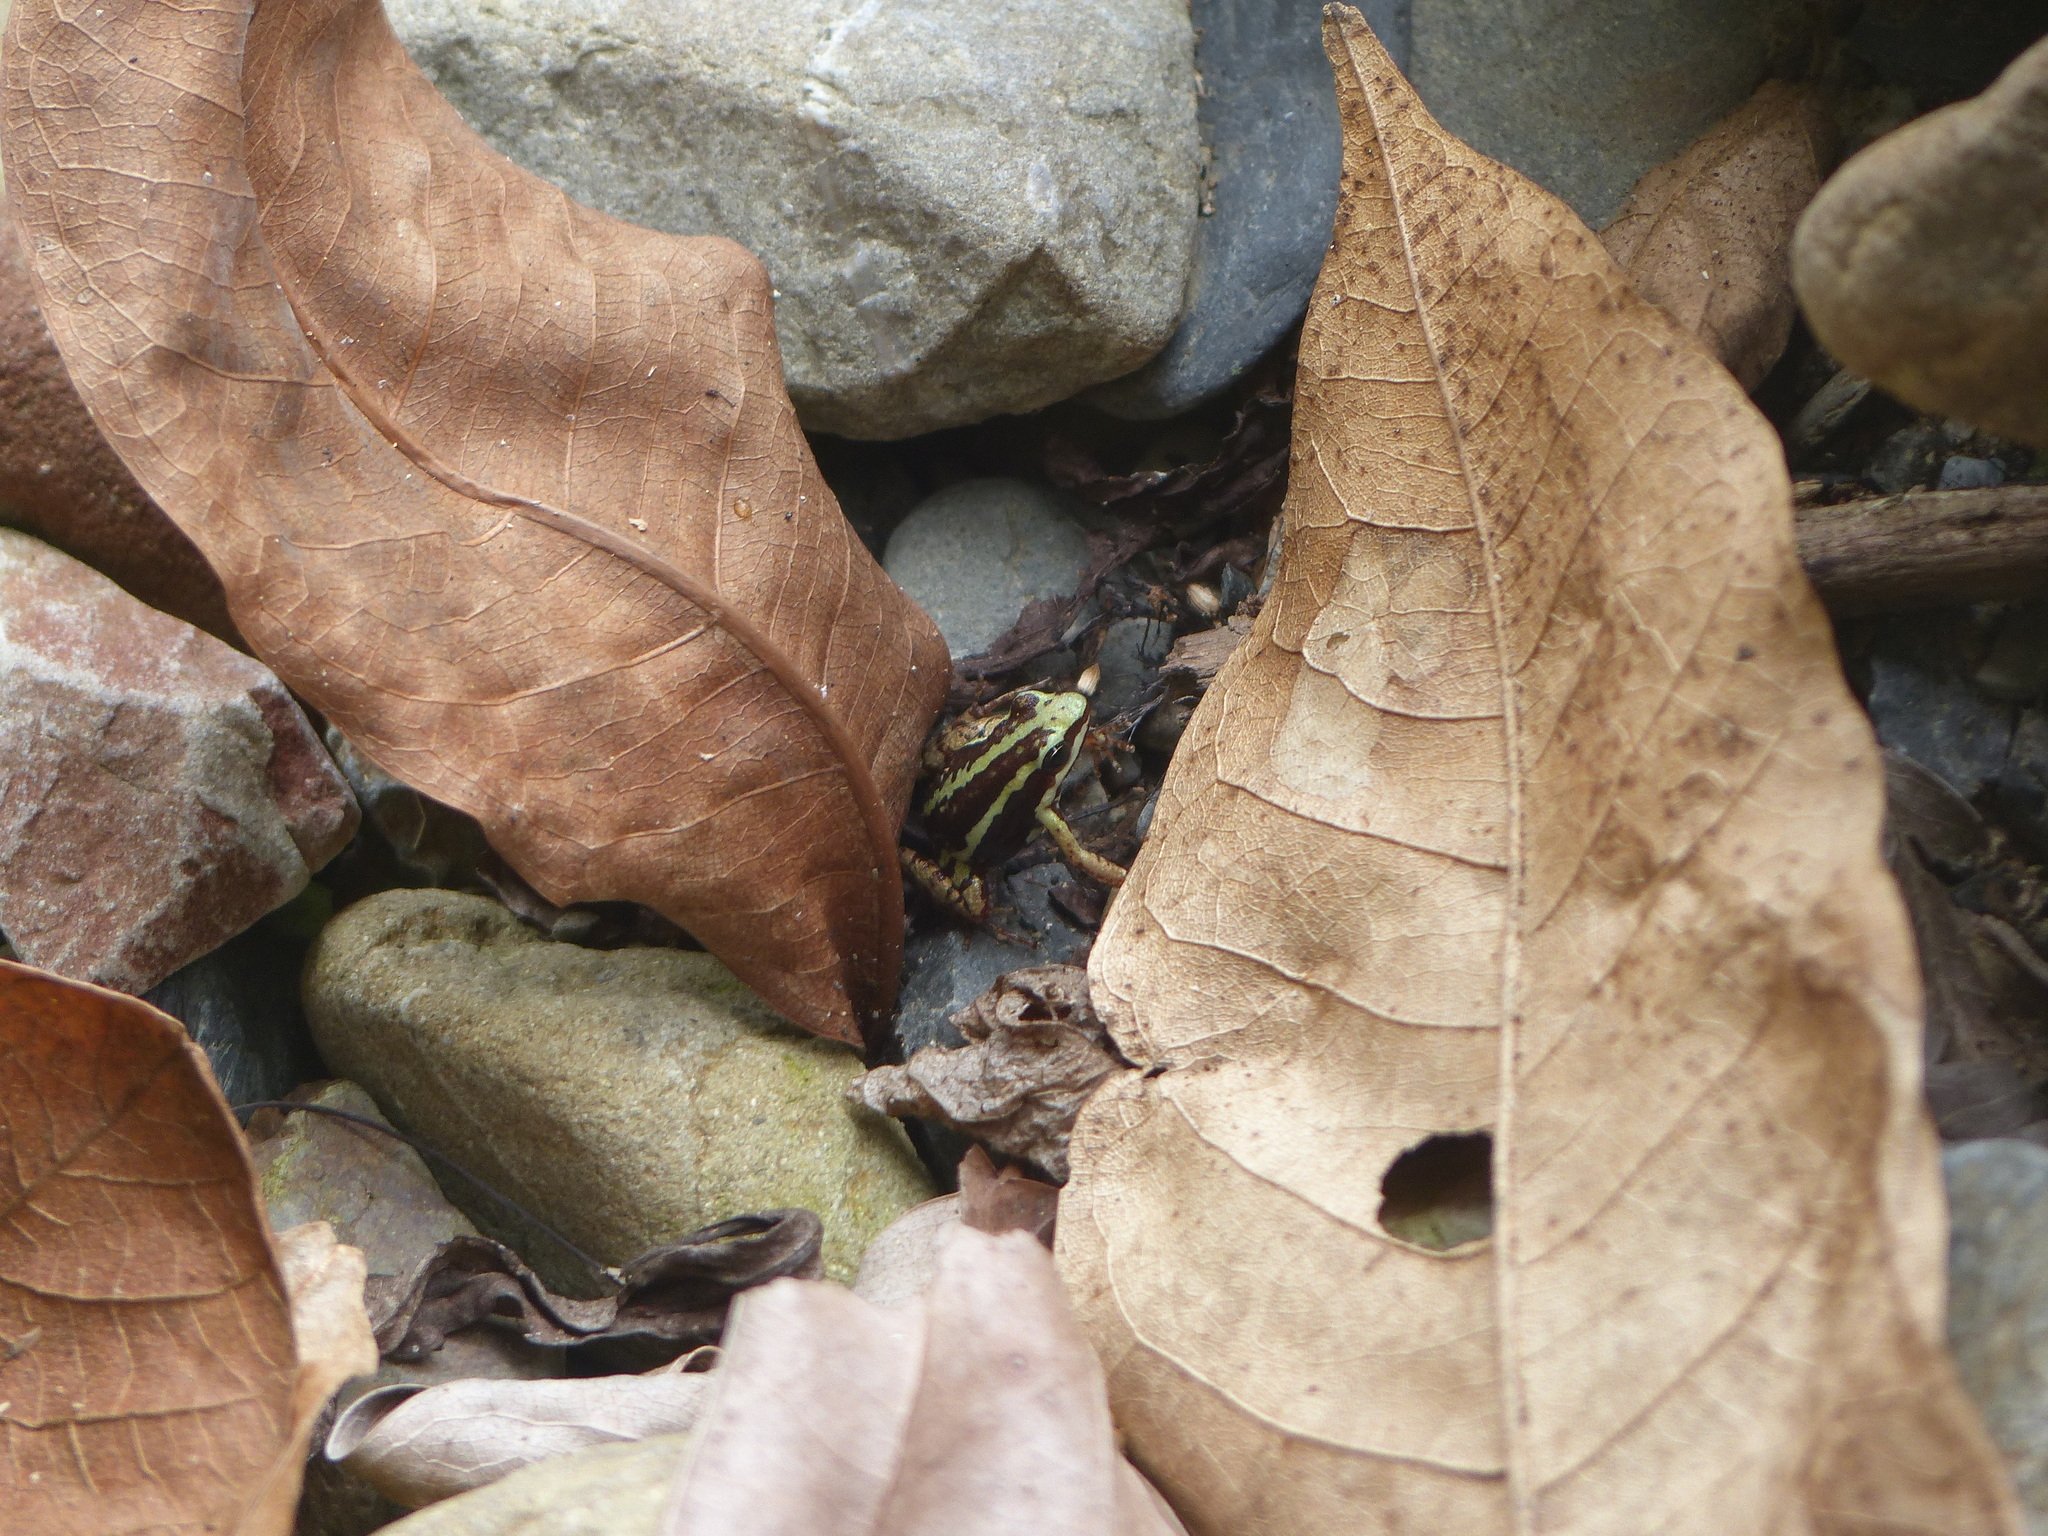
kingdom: Animalia
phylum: Chordata
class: Amphibia
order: Anura
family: Dendrobatidae
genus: Epipedobates
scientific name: Epipedobates anthonyi
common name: Anthony´s poison-arrow frog
